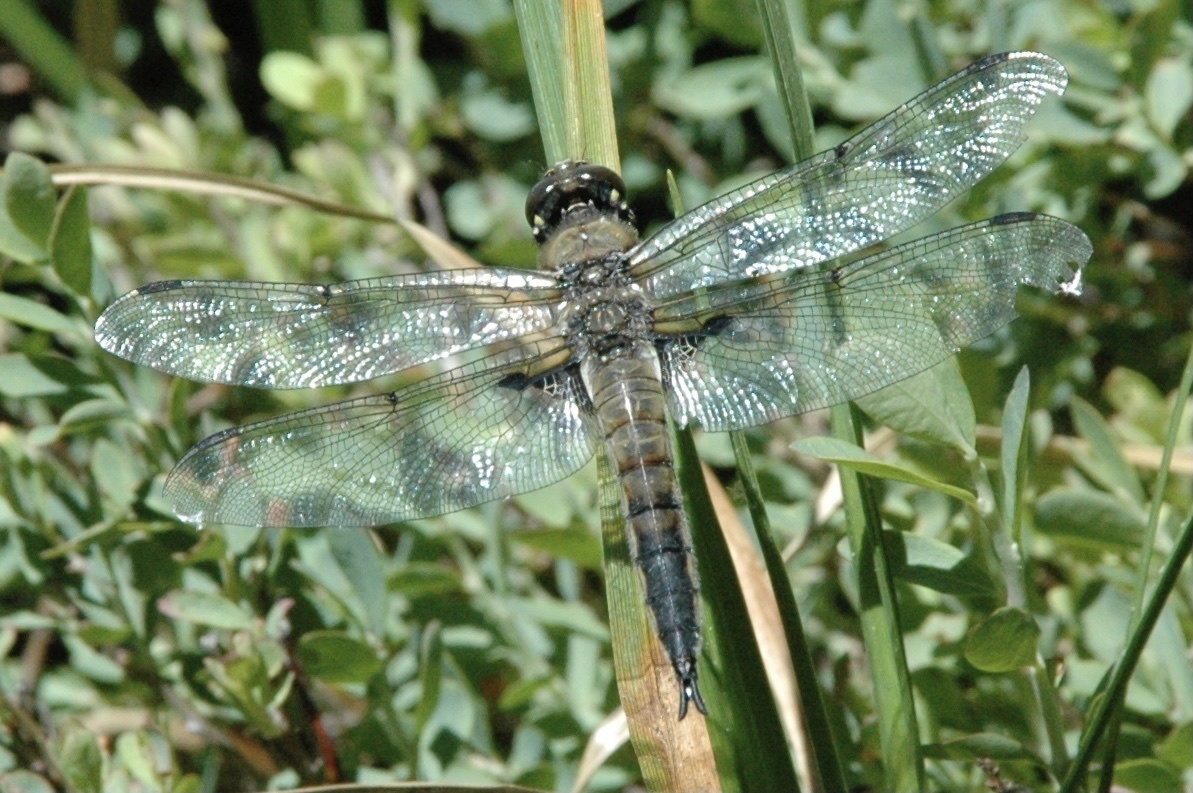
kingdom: Animalia
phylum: Arthropoda
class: Insecta
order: Odonata
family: Libellulidae
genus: Libellula
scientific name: Libellula quadrimaculata
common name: Four-spotted chaser
